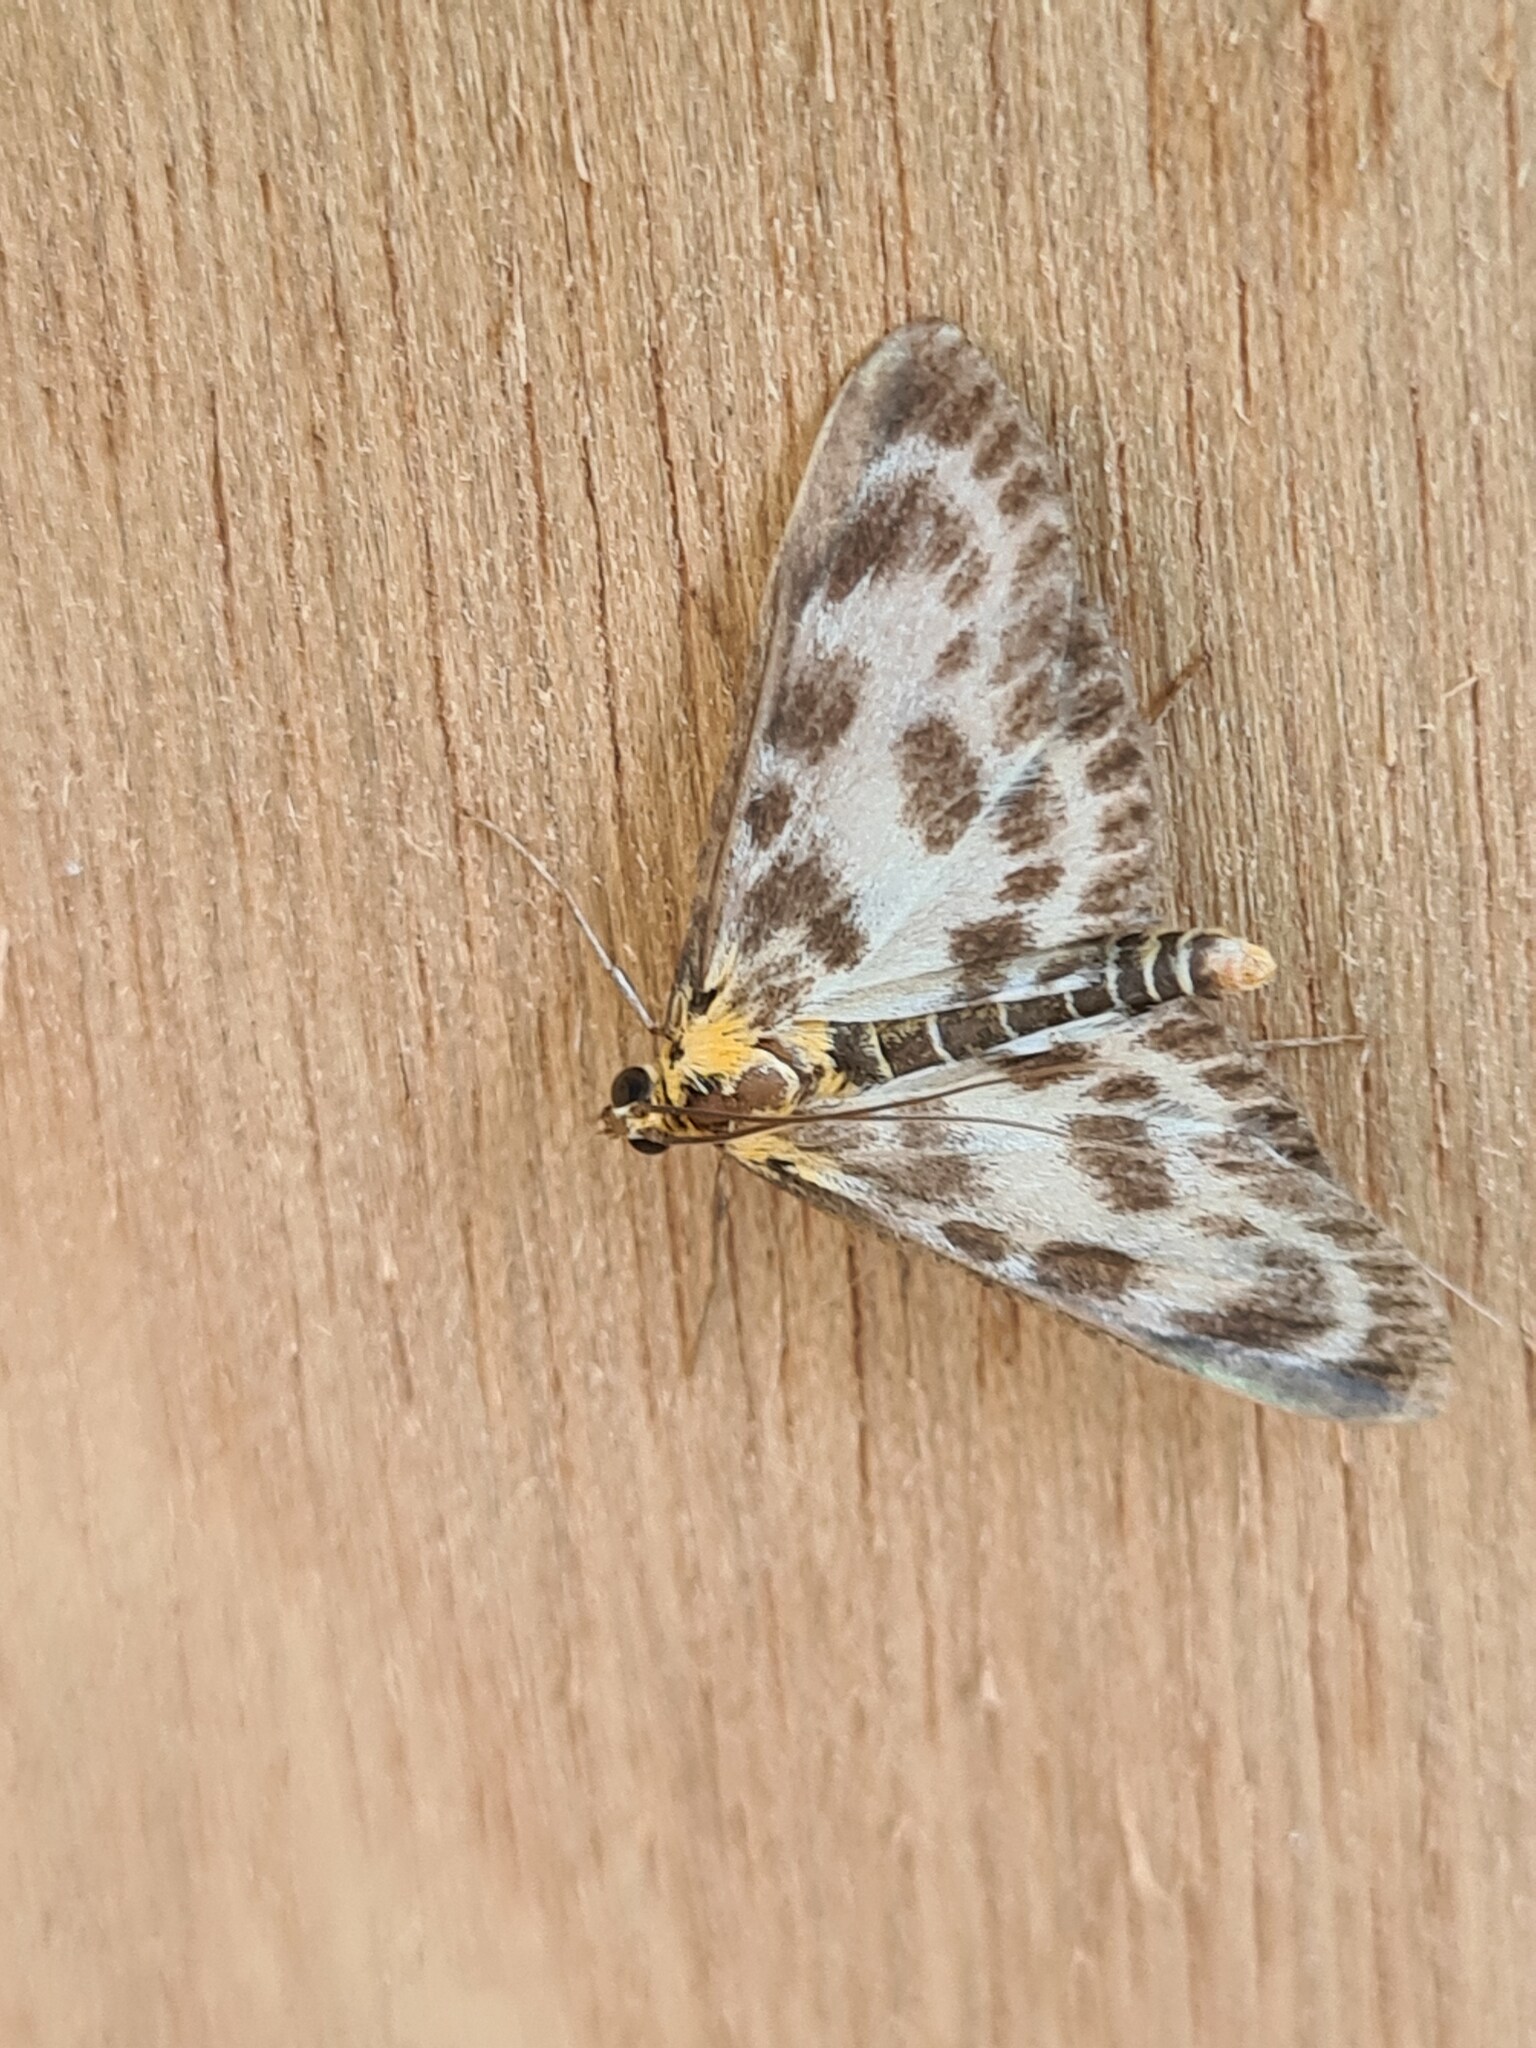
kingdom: Animalia
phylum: Arthropoda
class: Insecta
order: Lepidoptera
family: Crambidae
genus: Anania
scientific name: Anania hortulata
